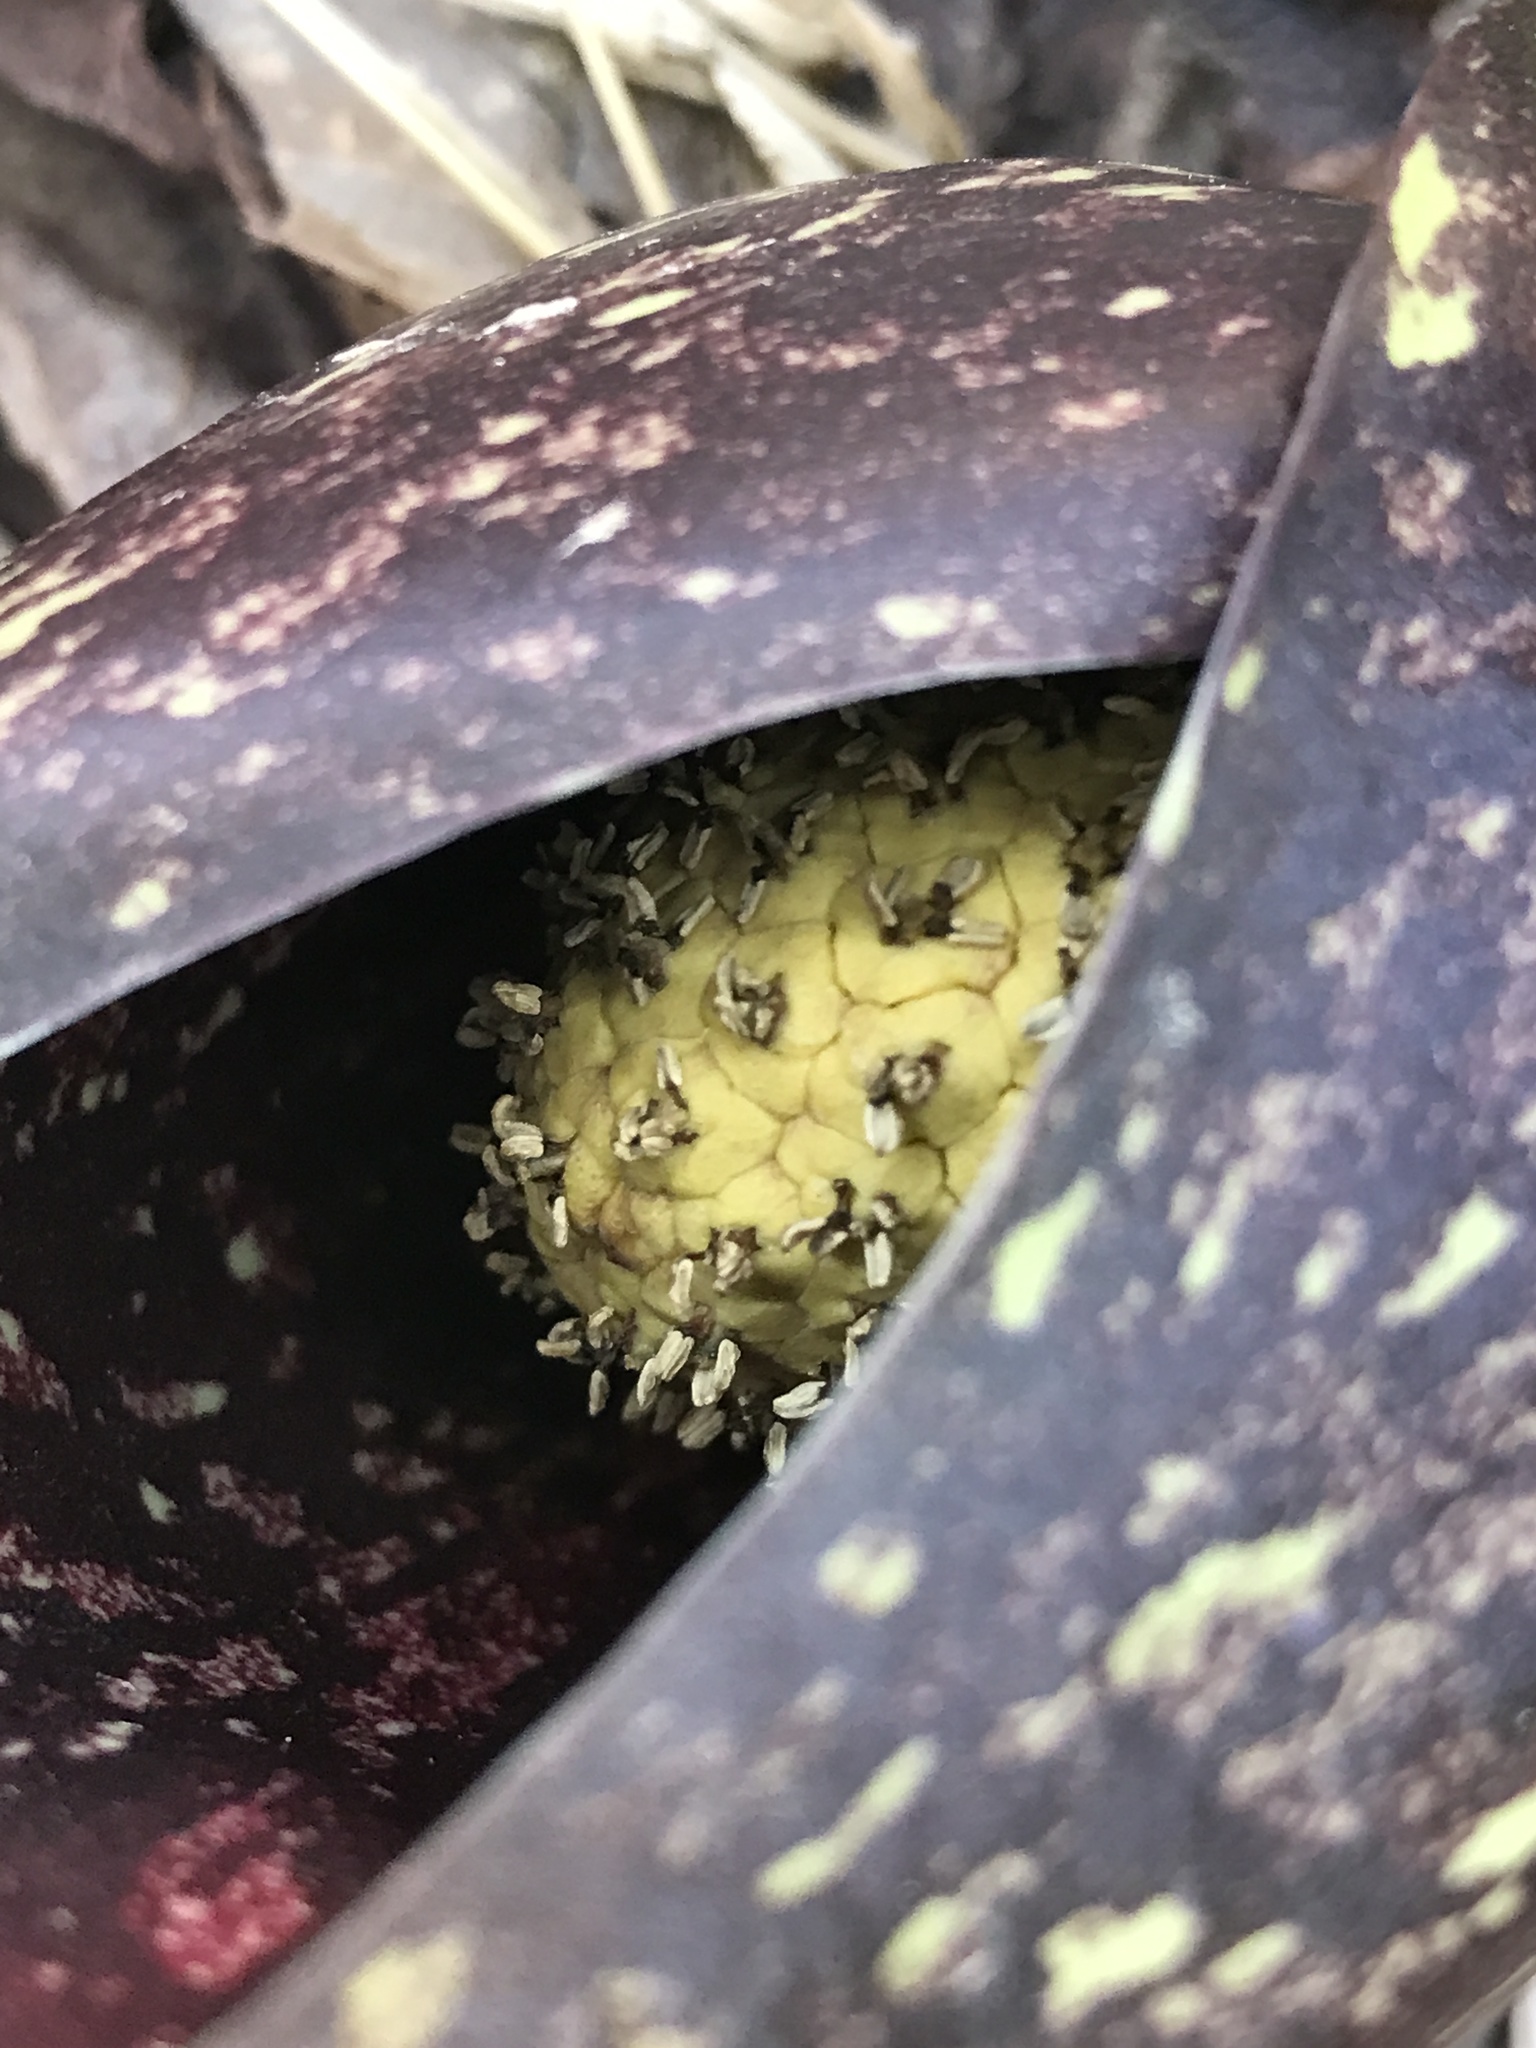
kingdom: Plantae
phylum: Tracheophyta
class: Liliopsida
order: Alismatales
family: Araceae
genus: Symplocarpus
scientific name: Symplocarpus foetidus
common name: Eastern skunk cabbage
